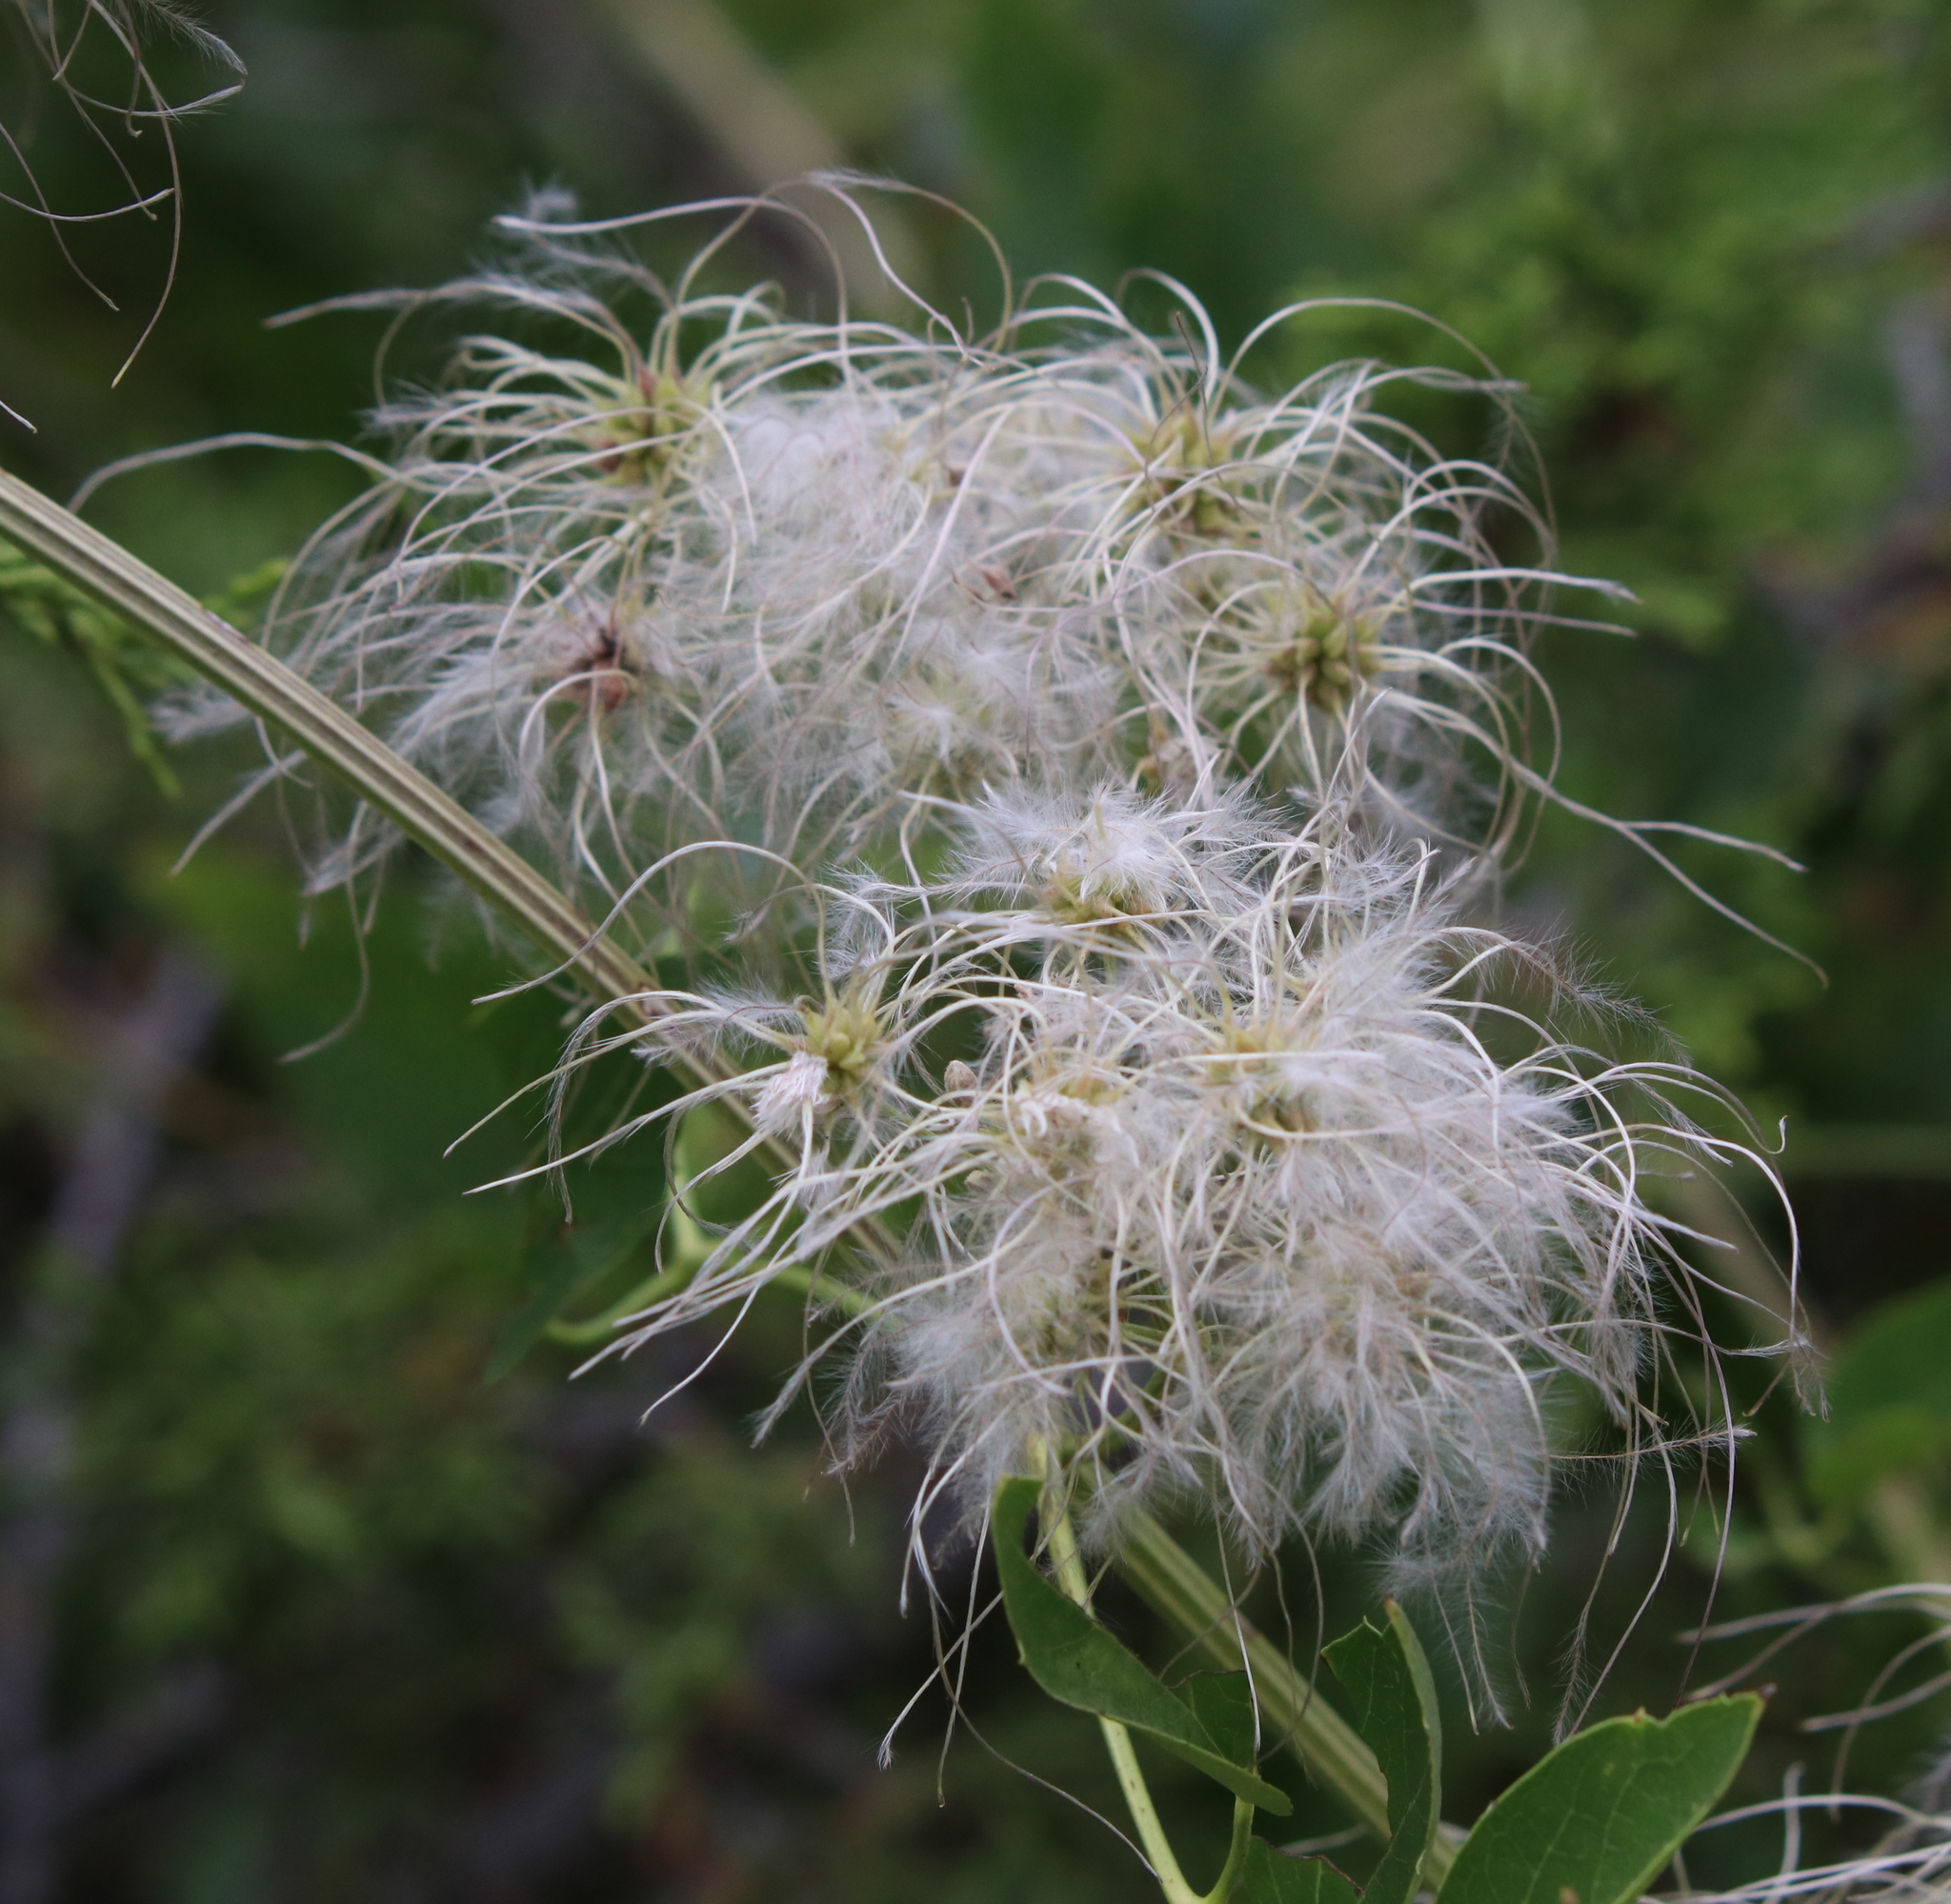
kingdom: Plantae
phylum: Tracheophyta
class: Magnoliopsida
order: Ranunculales
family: Ranunculaceae
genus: Clematis
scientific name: Clematis ligusticifolia
